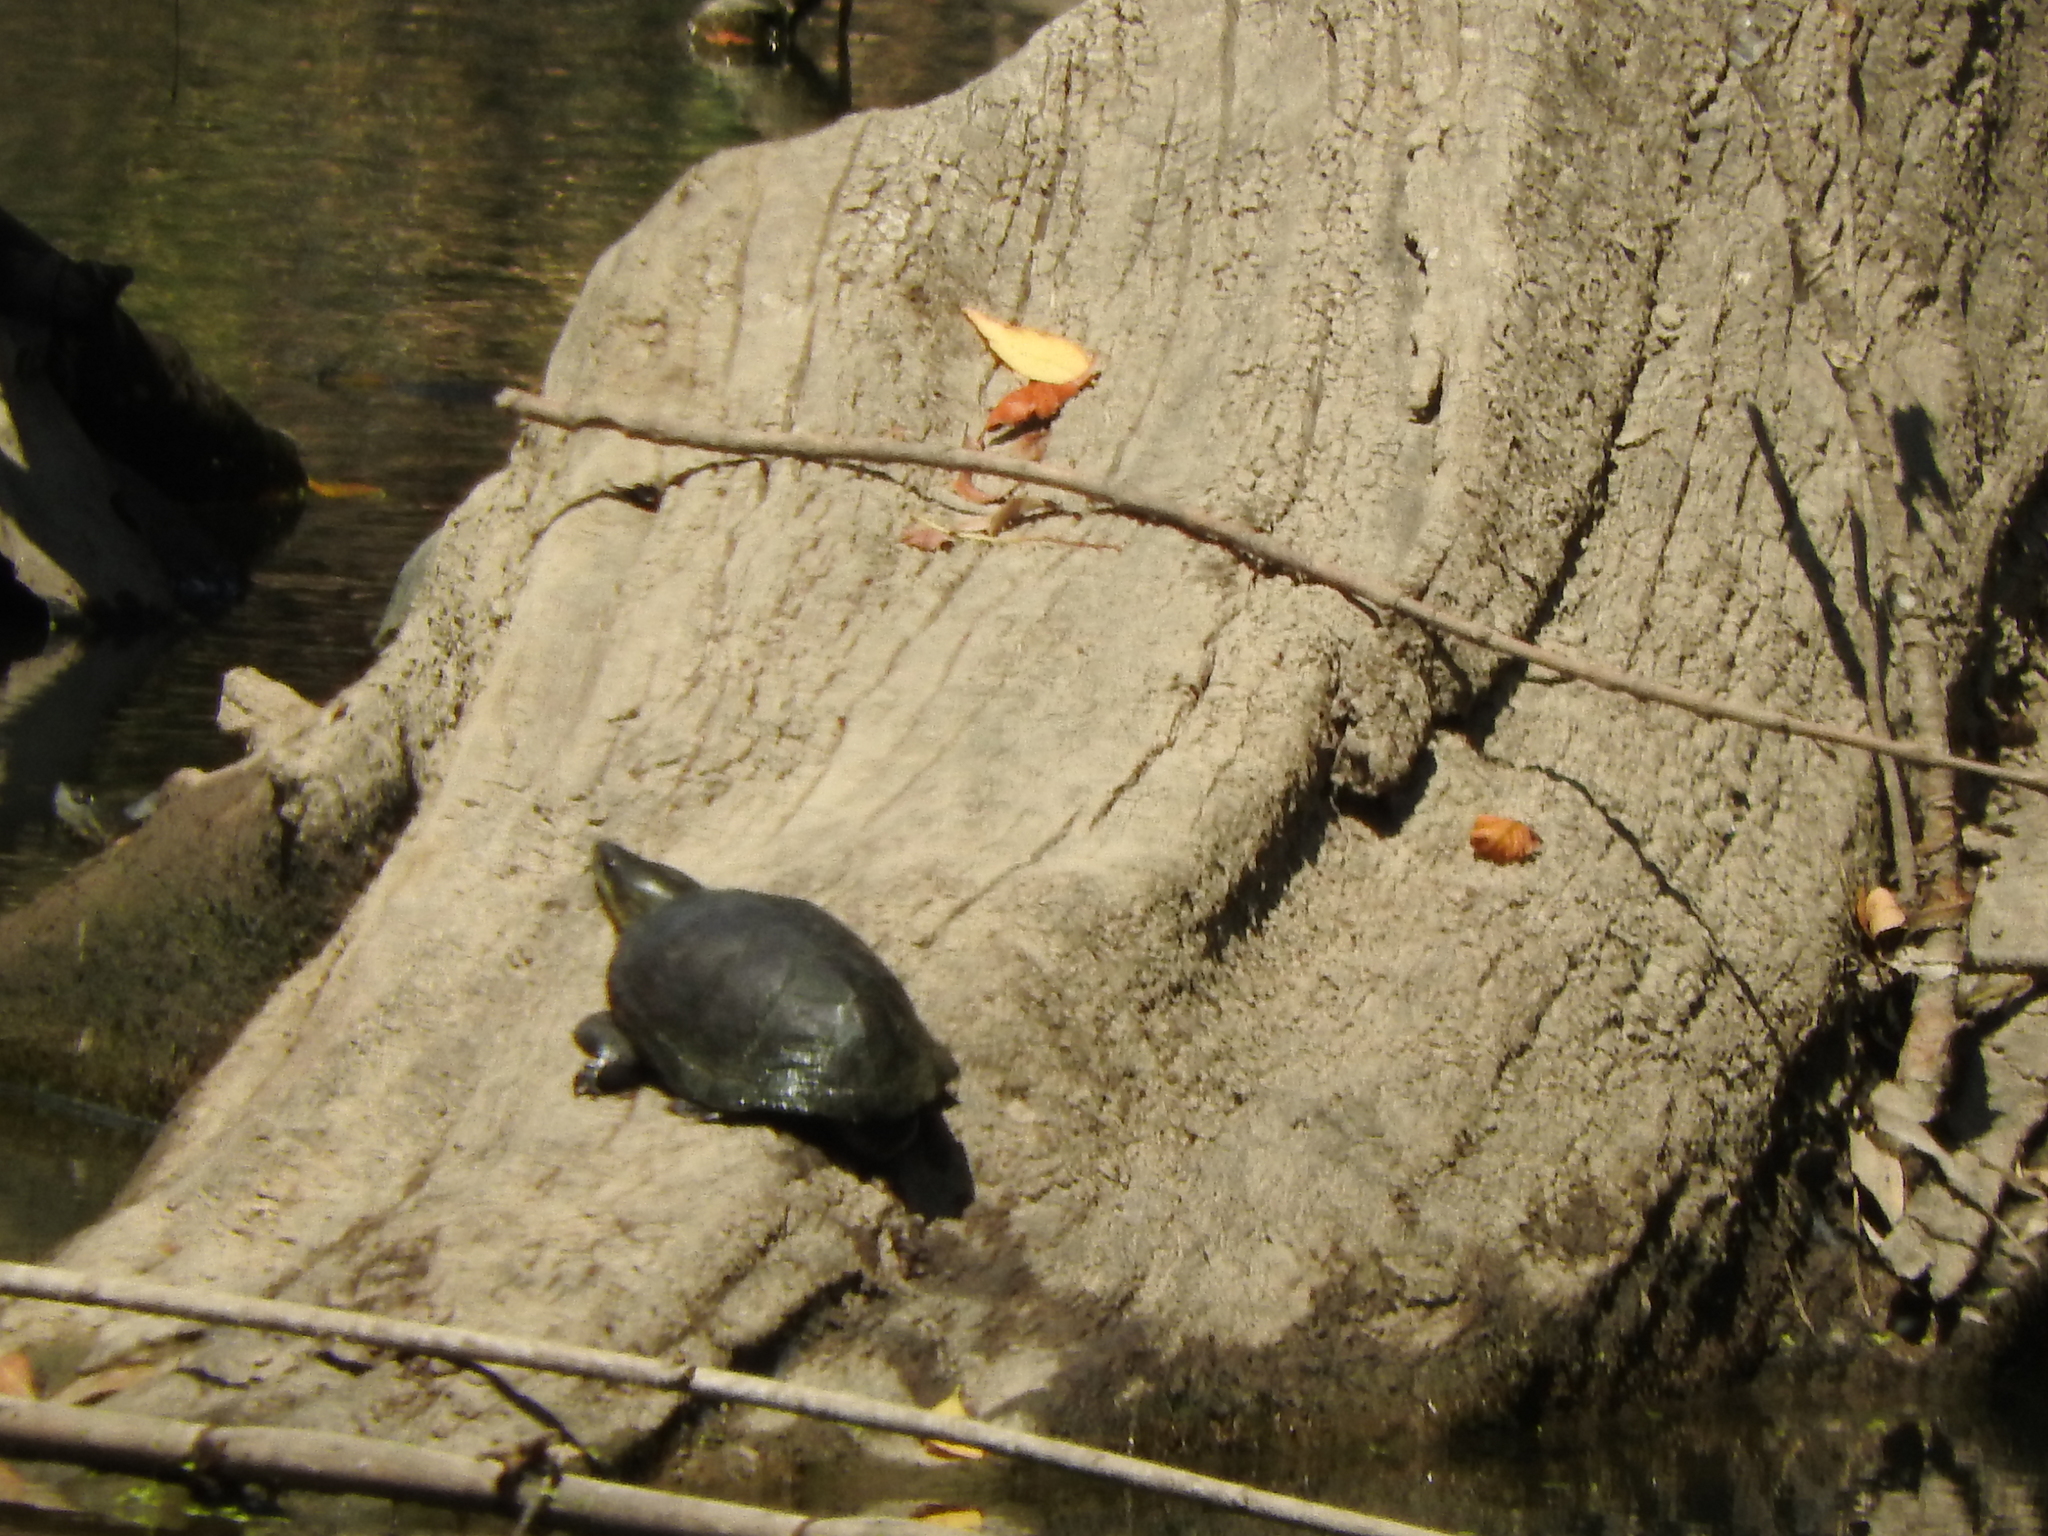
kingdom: Animalia
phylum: Chordata
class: Testudines
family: Kinosternidae
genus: Kinosternon
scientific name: Kinosternon integrum
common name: Mexican mud turtle
